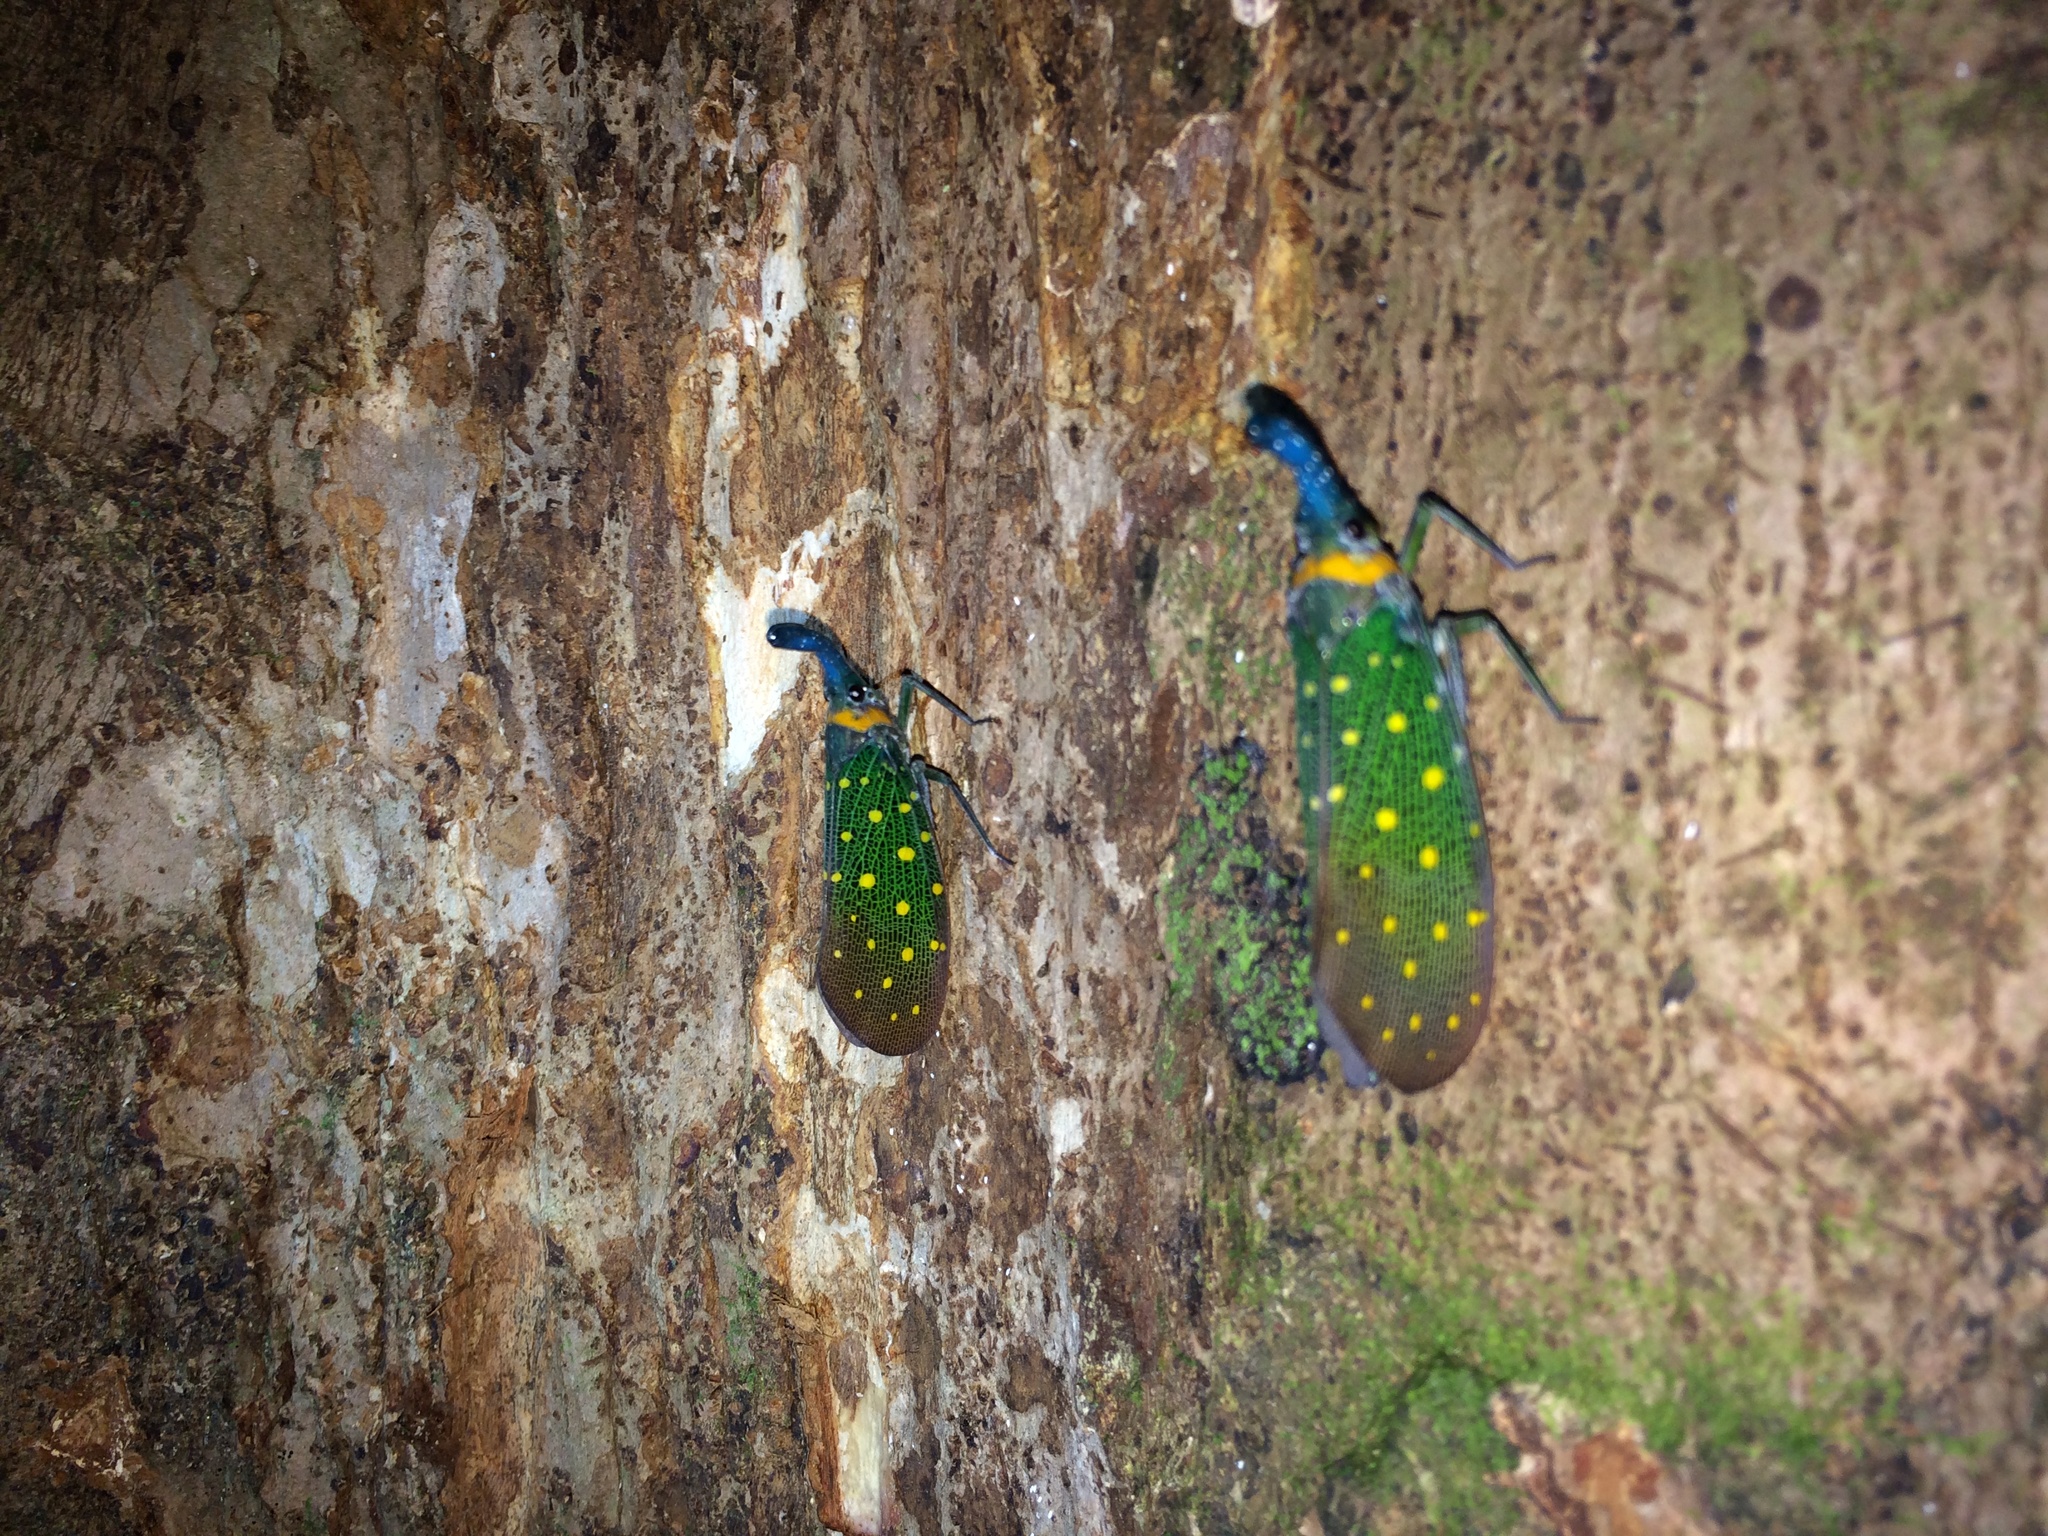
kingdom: Animalia
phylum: Arthropoda
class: Insecta
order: Hemiptera
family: Fulgoridae
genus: Pyrops
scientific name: Pyrops whiteheadi
